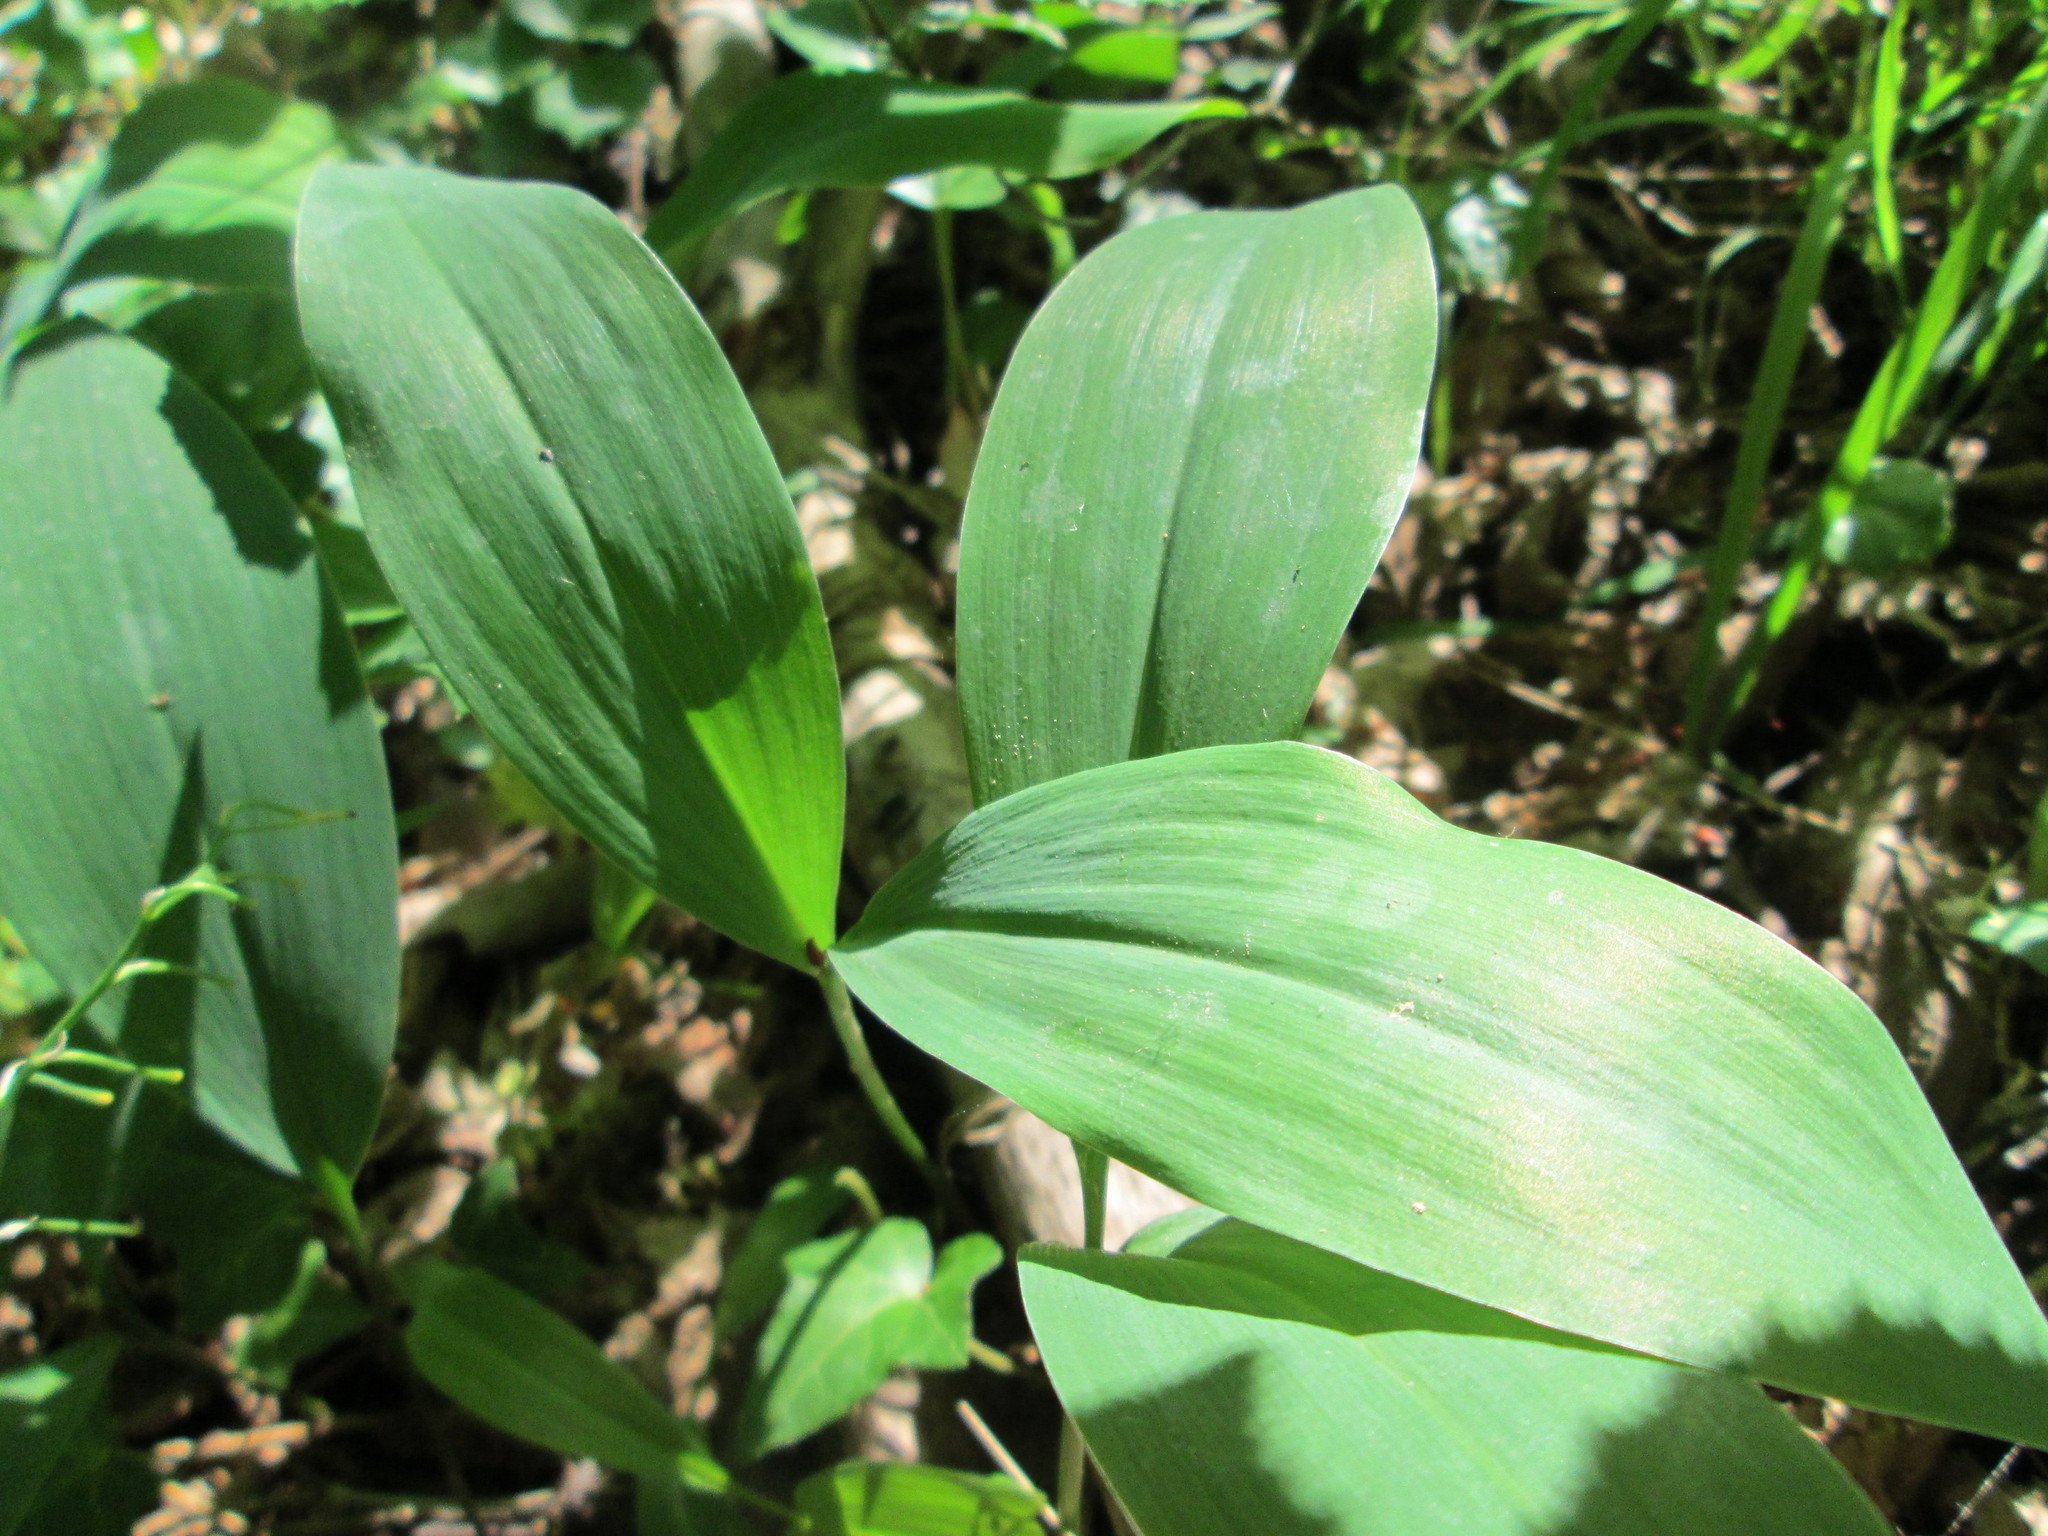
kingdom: Plantae
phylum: Tracheophyta
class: Liliopsida
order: Asparagales
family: Asparagaceae
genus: Convallaria
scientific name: Convallaria majalis
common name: Lily-of-the-valley
